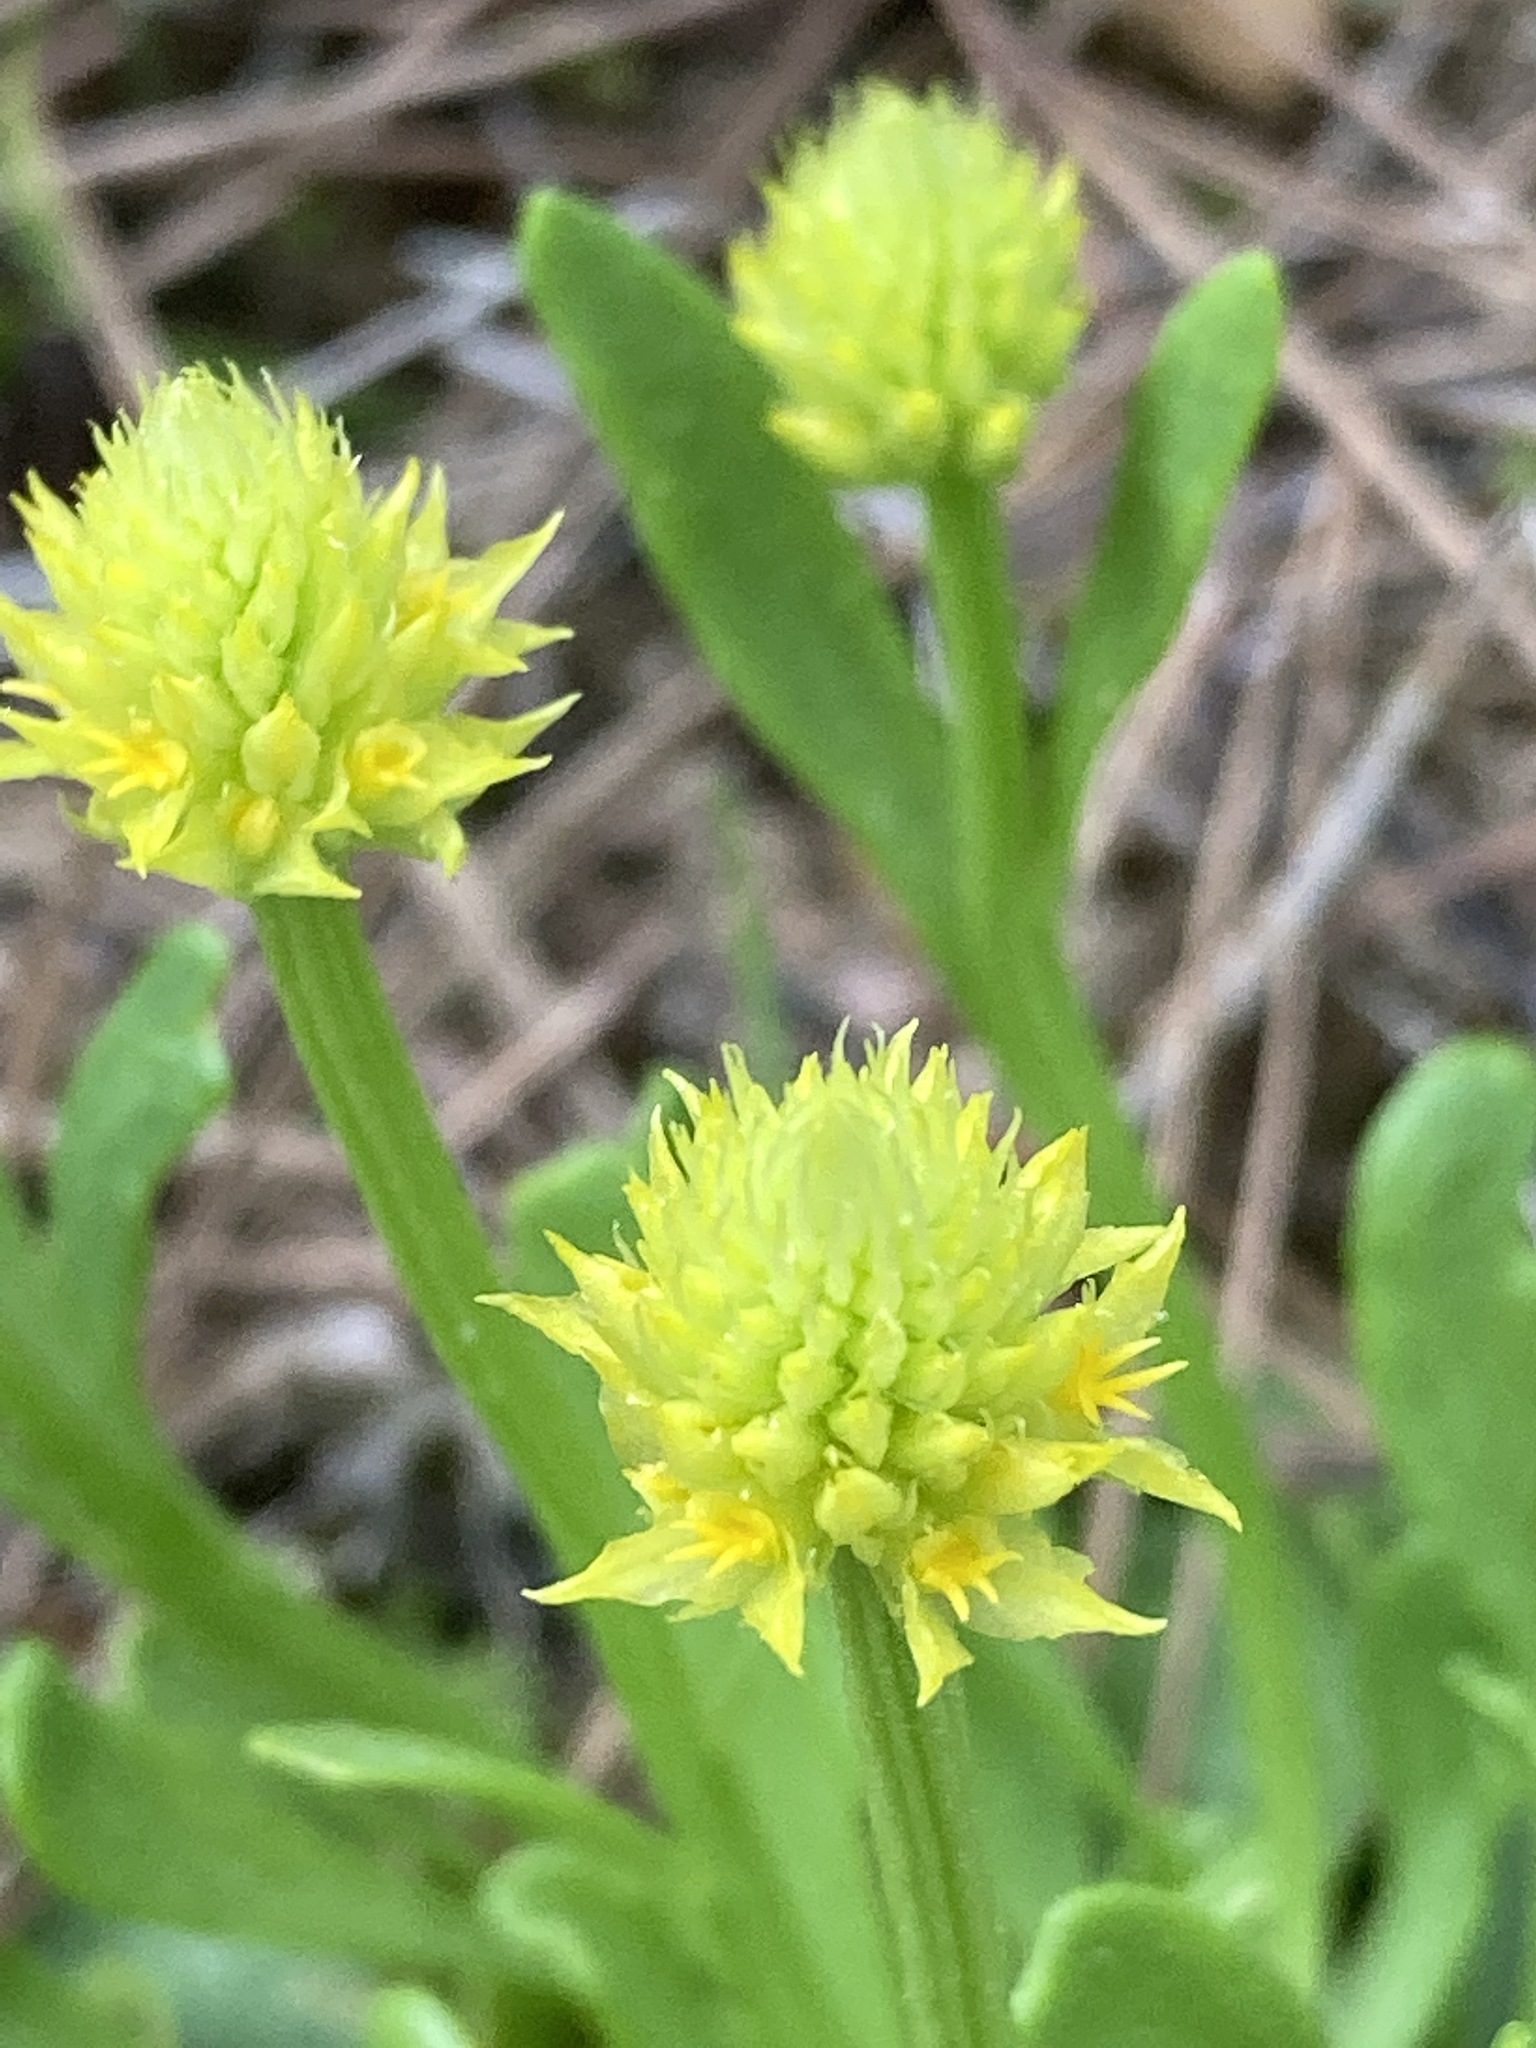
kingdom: Plantae
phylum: Tracheophyta
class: Magnoliopsida
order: Fabales
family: Polygalaceae
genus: Polygala
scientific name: Polygala nana
